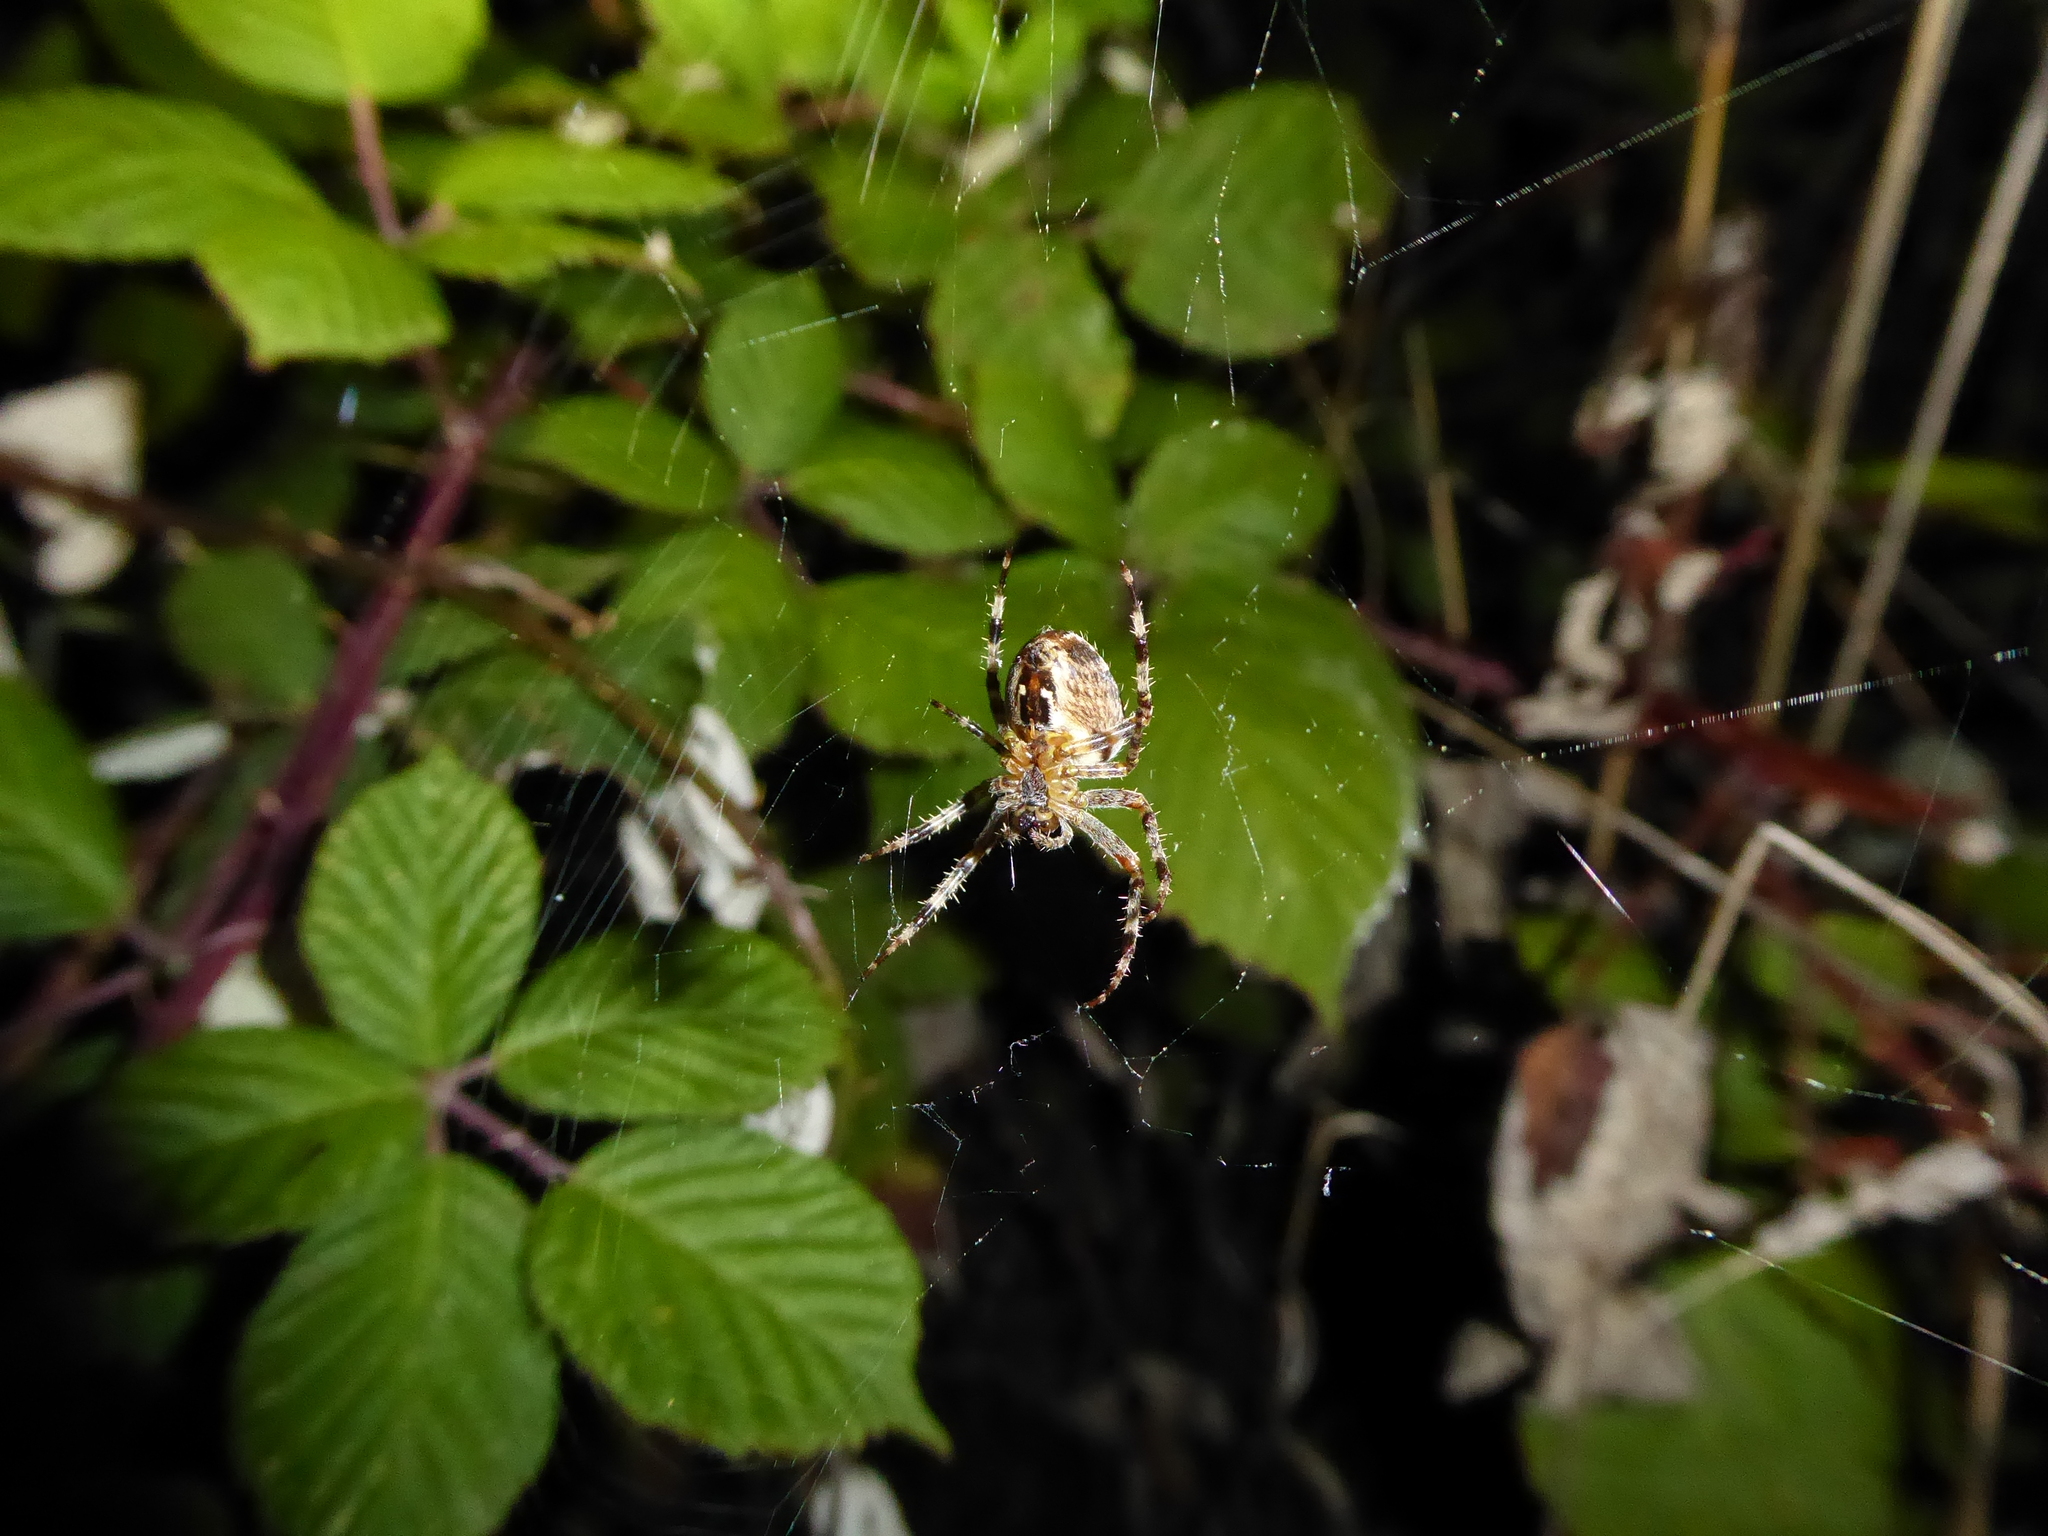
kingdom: Animalia
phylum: Arthropoda
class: Arachnida
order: Araneae
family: Araneidae
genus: Araneus
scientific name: Araneus diadematus
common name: Cross orbweaver
